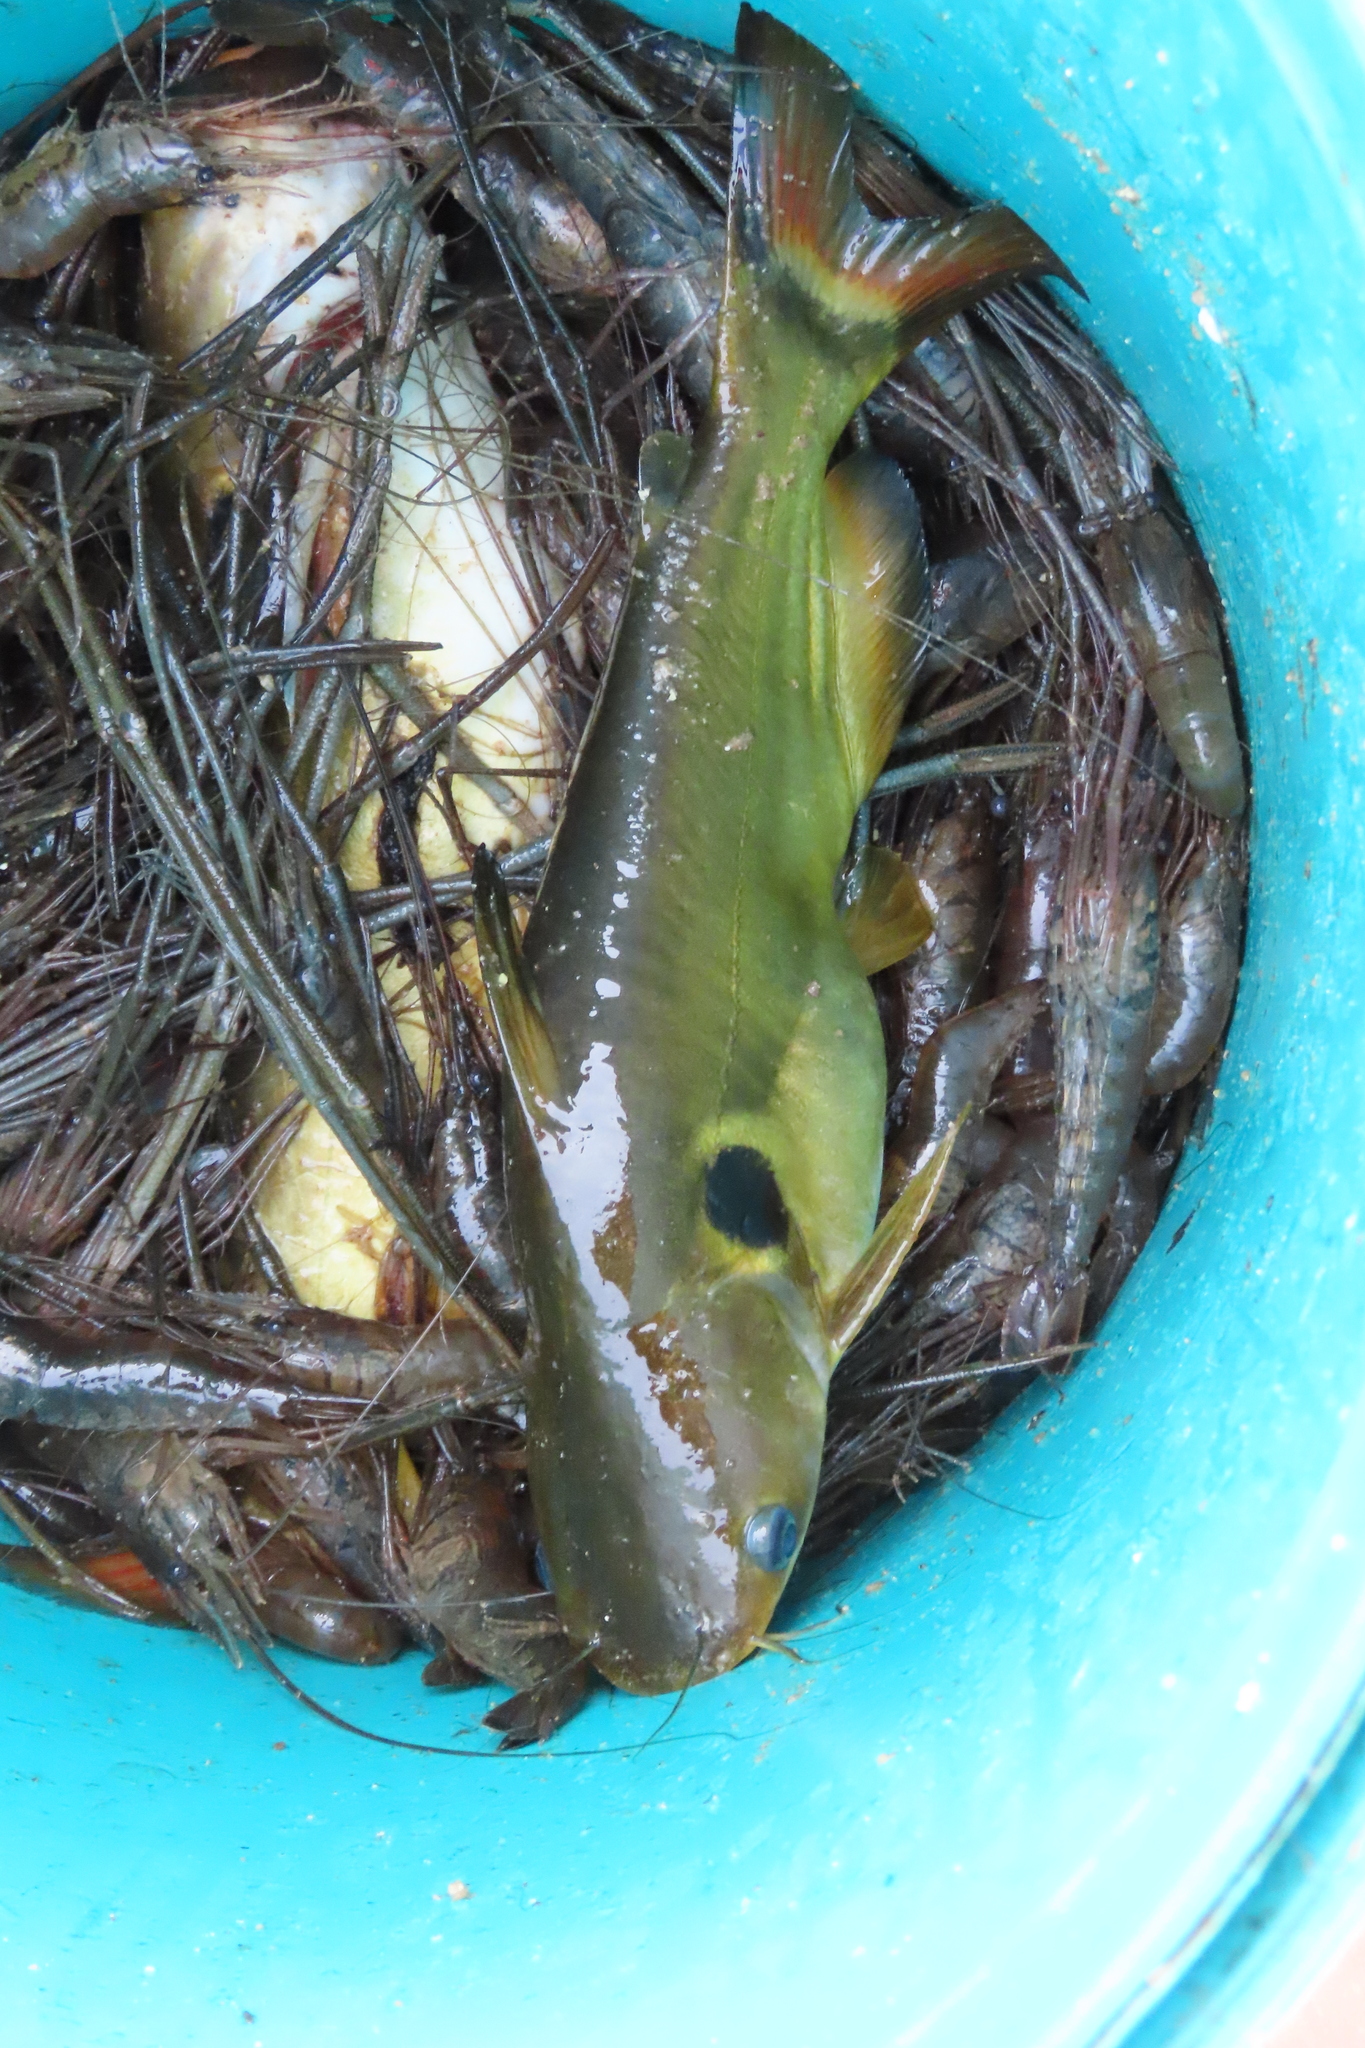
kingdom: Animalia
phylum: Chordata
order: Siluriformes
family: Bagridae
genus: Horabagrus
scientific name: Horabagrus brachysoma
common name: Bulls eye catfish
